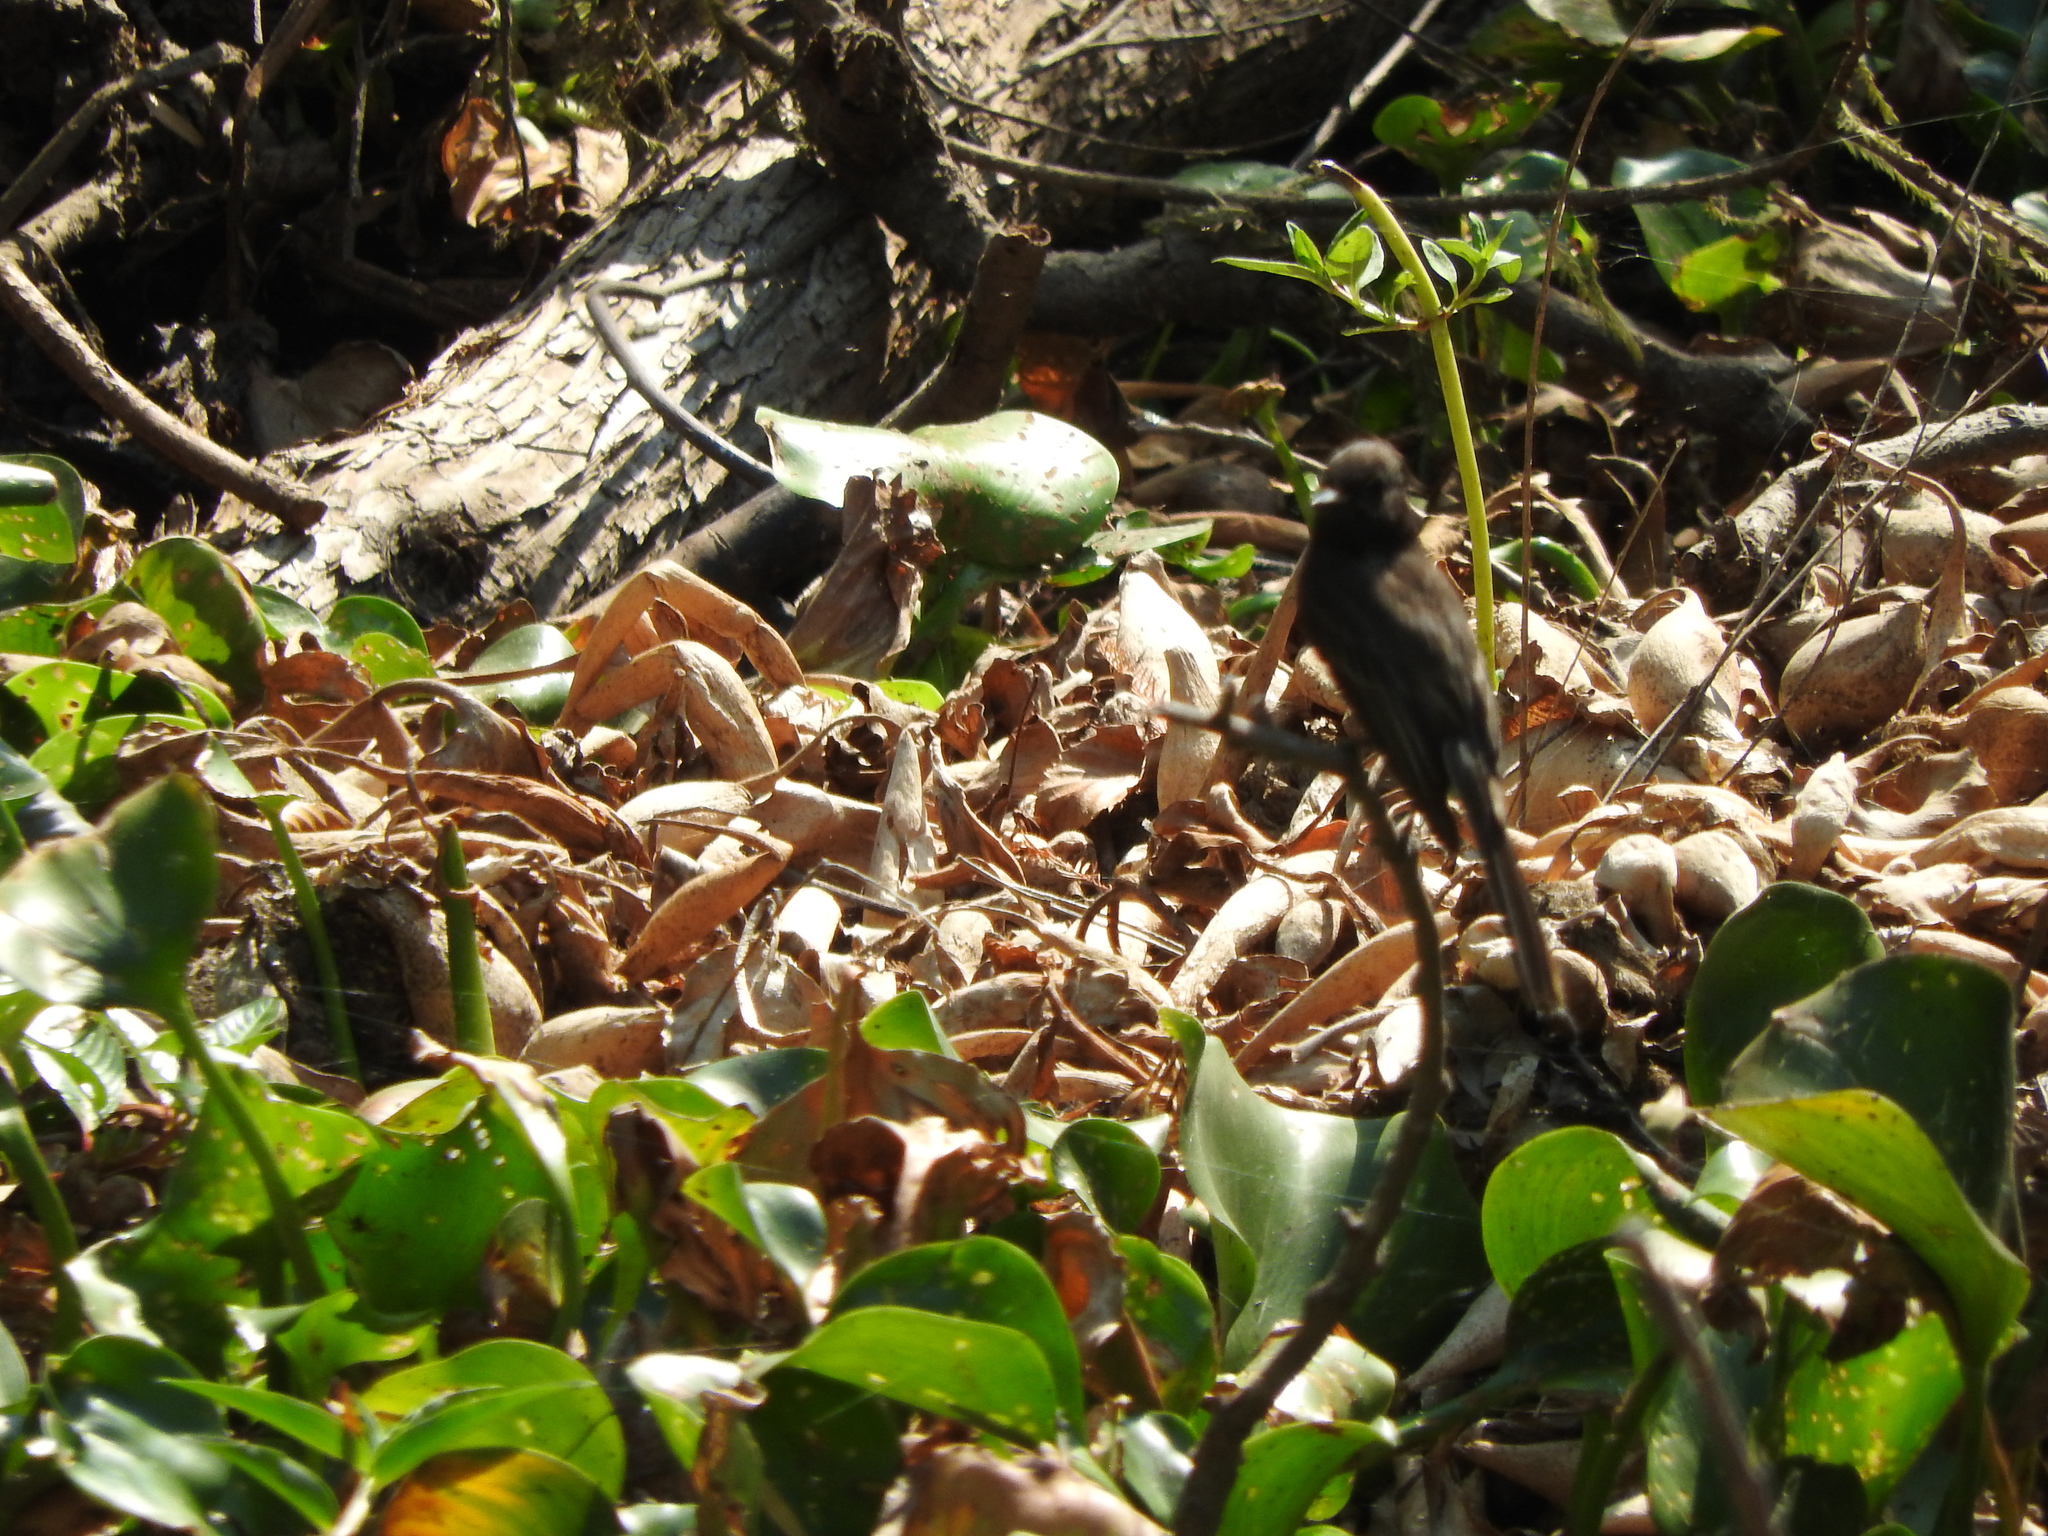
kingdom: Animalia
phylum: Chordata
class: Aves
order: Passeriformes
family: Tyrannidae
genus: Sayornis
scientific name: Sayornis nigricans
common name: Black phoebe
